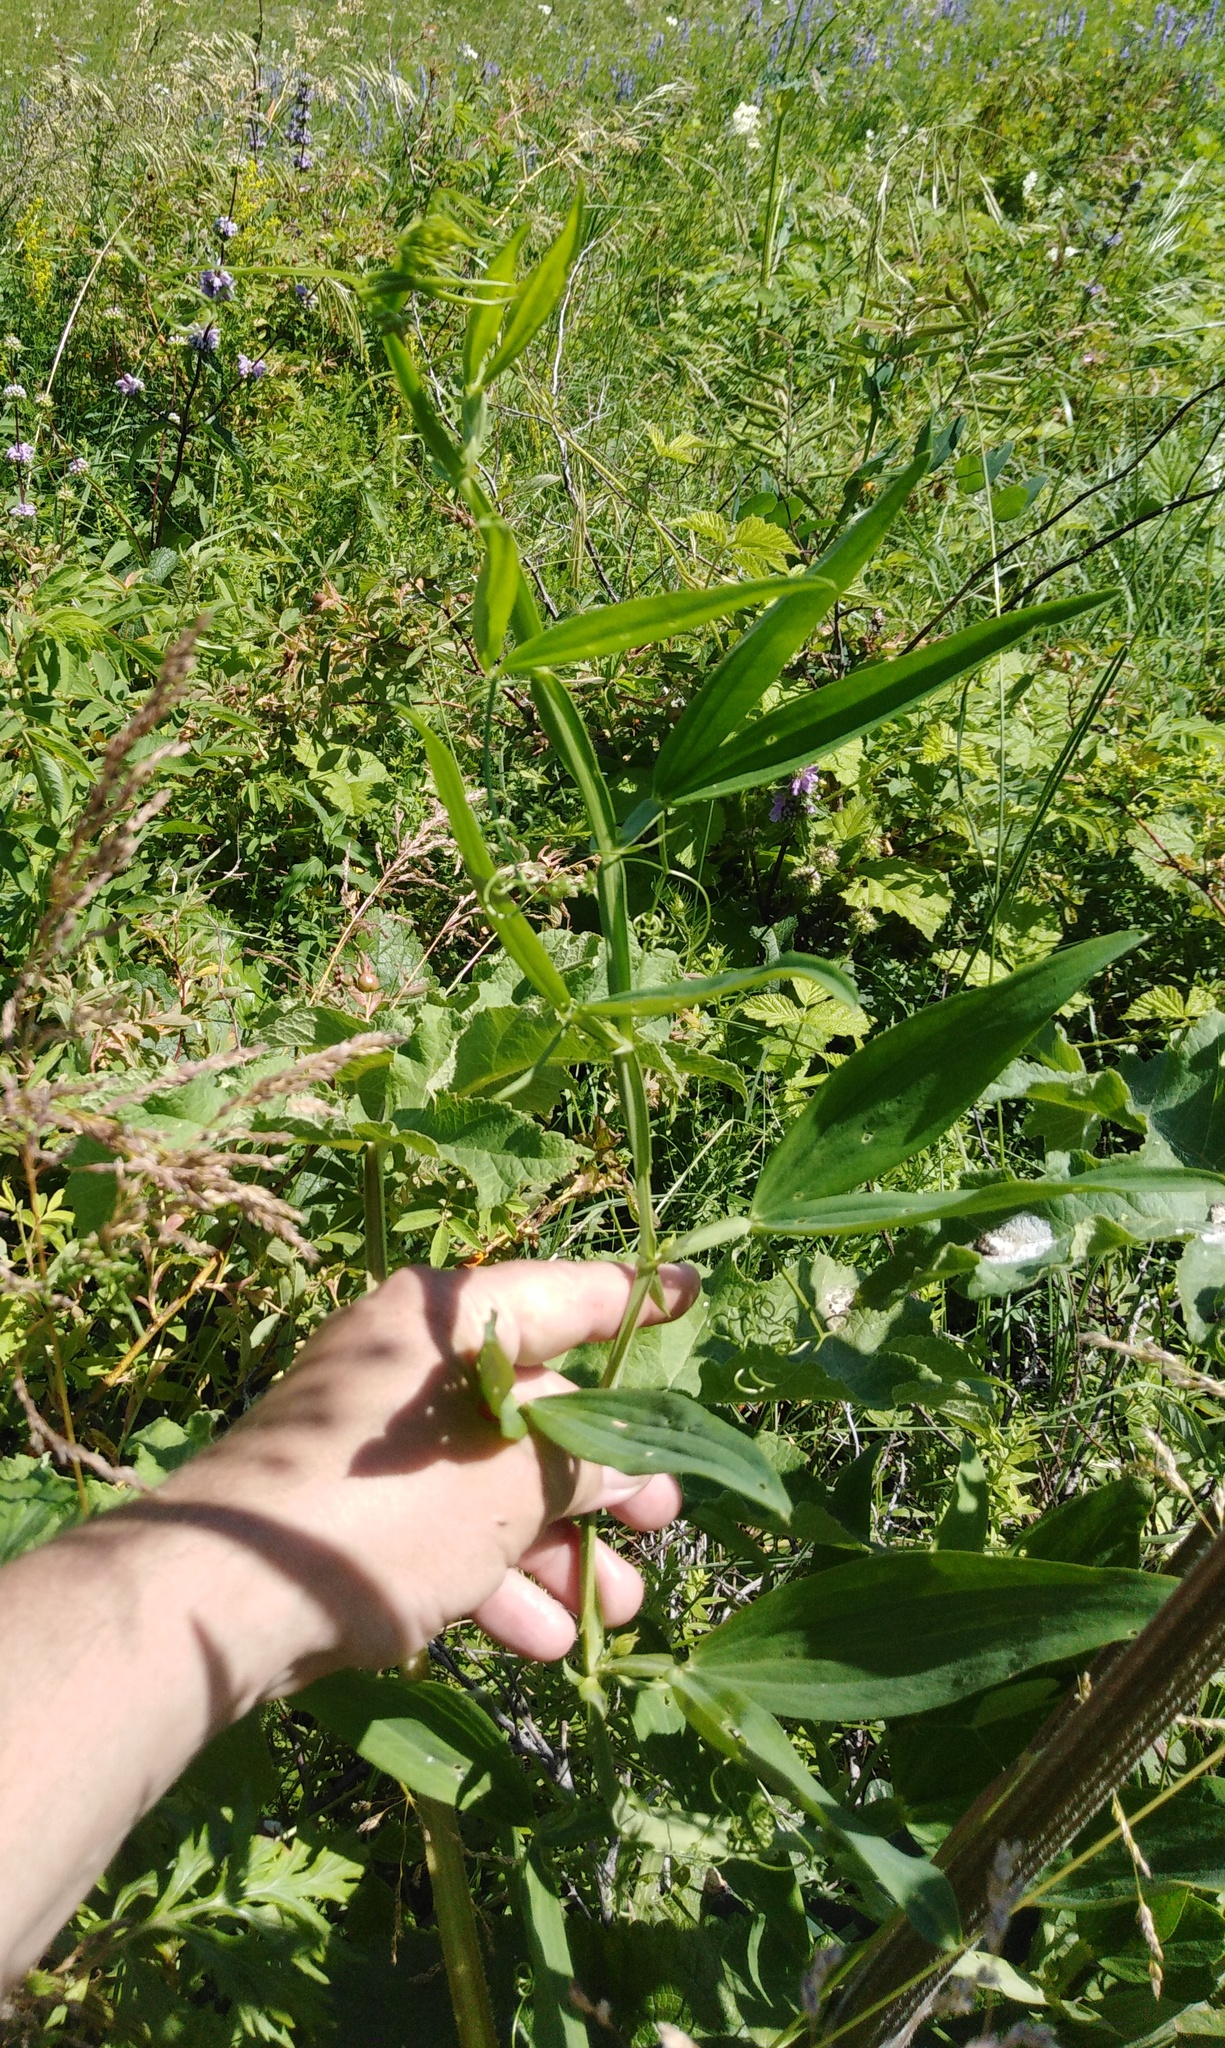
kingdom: Plantae
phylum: Tracheophyta
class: Magnoliopsida
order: Fabales
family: Fabaceae
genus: Lathyrus
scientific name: Lathyrus sylvestris
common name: Flat pea
